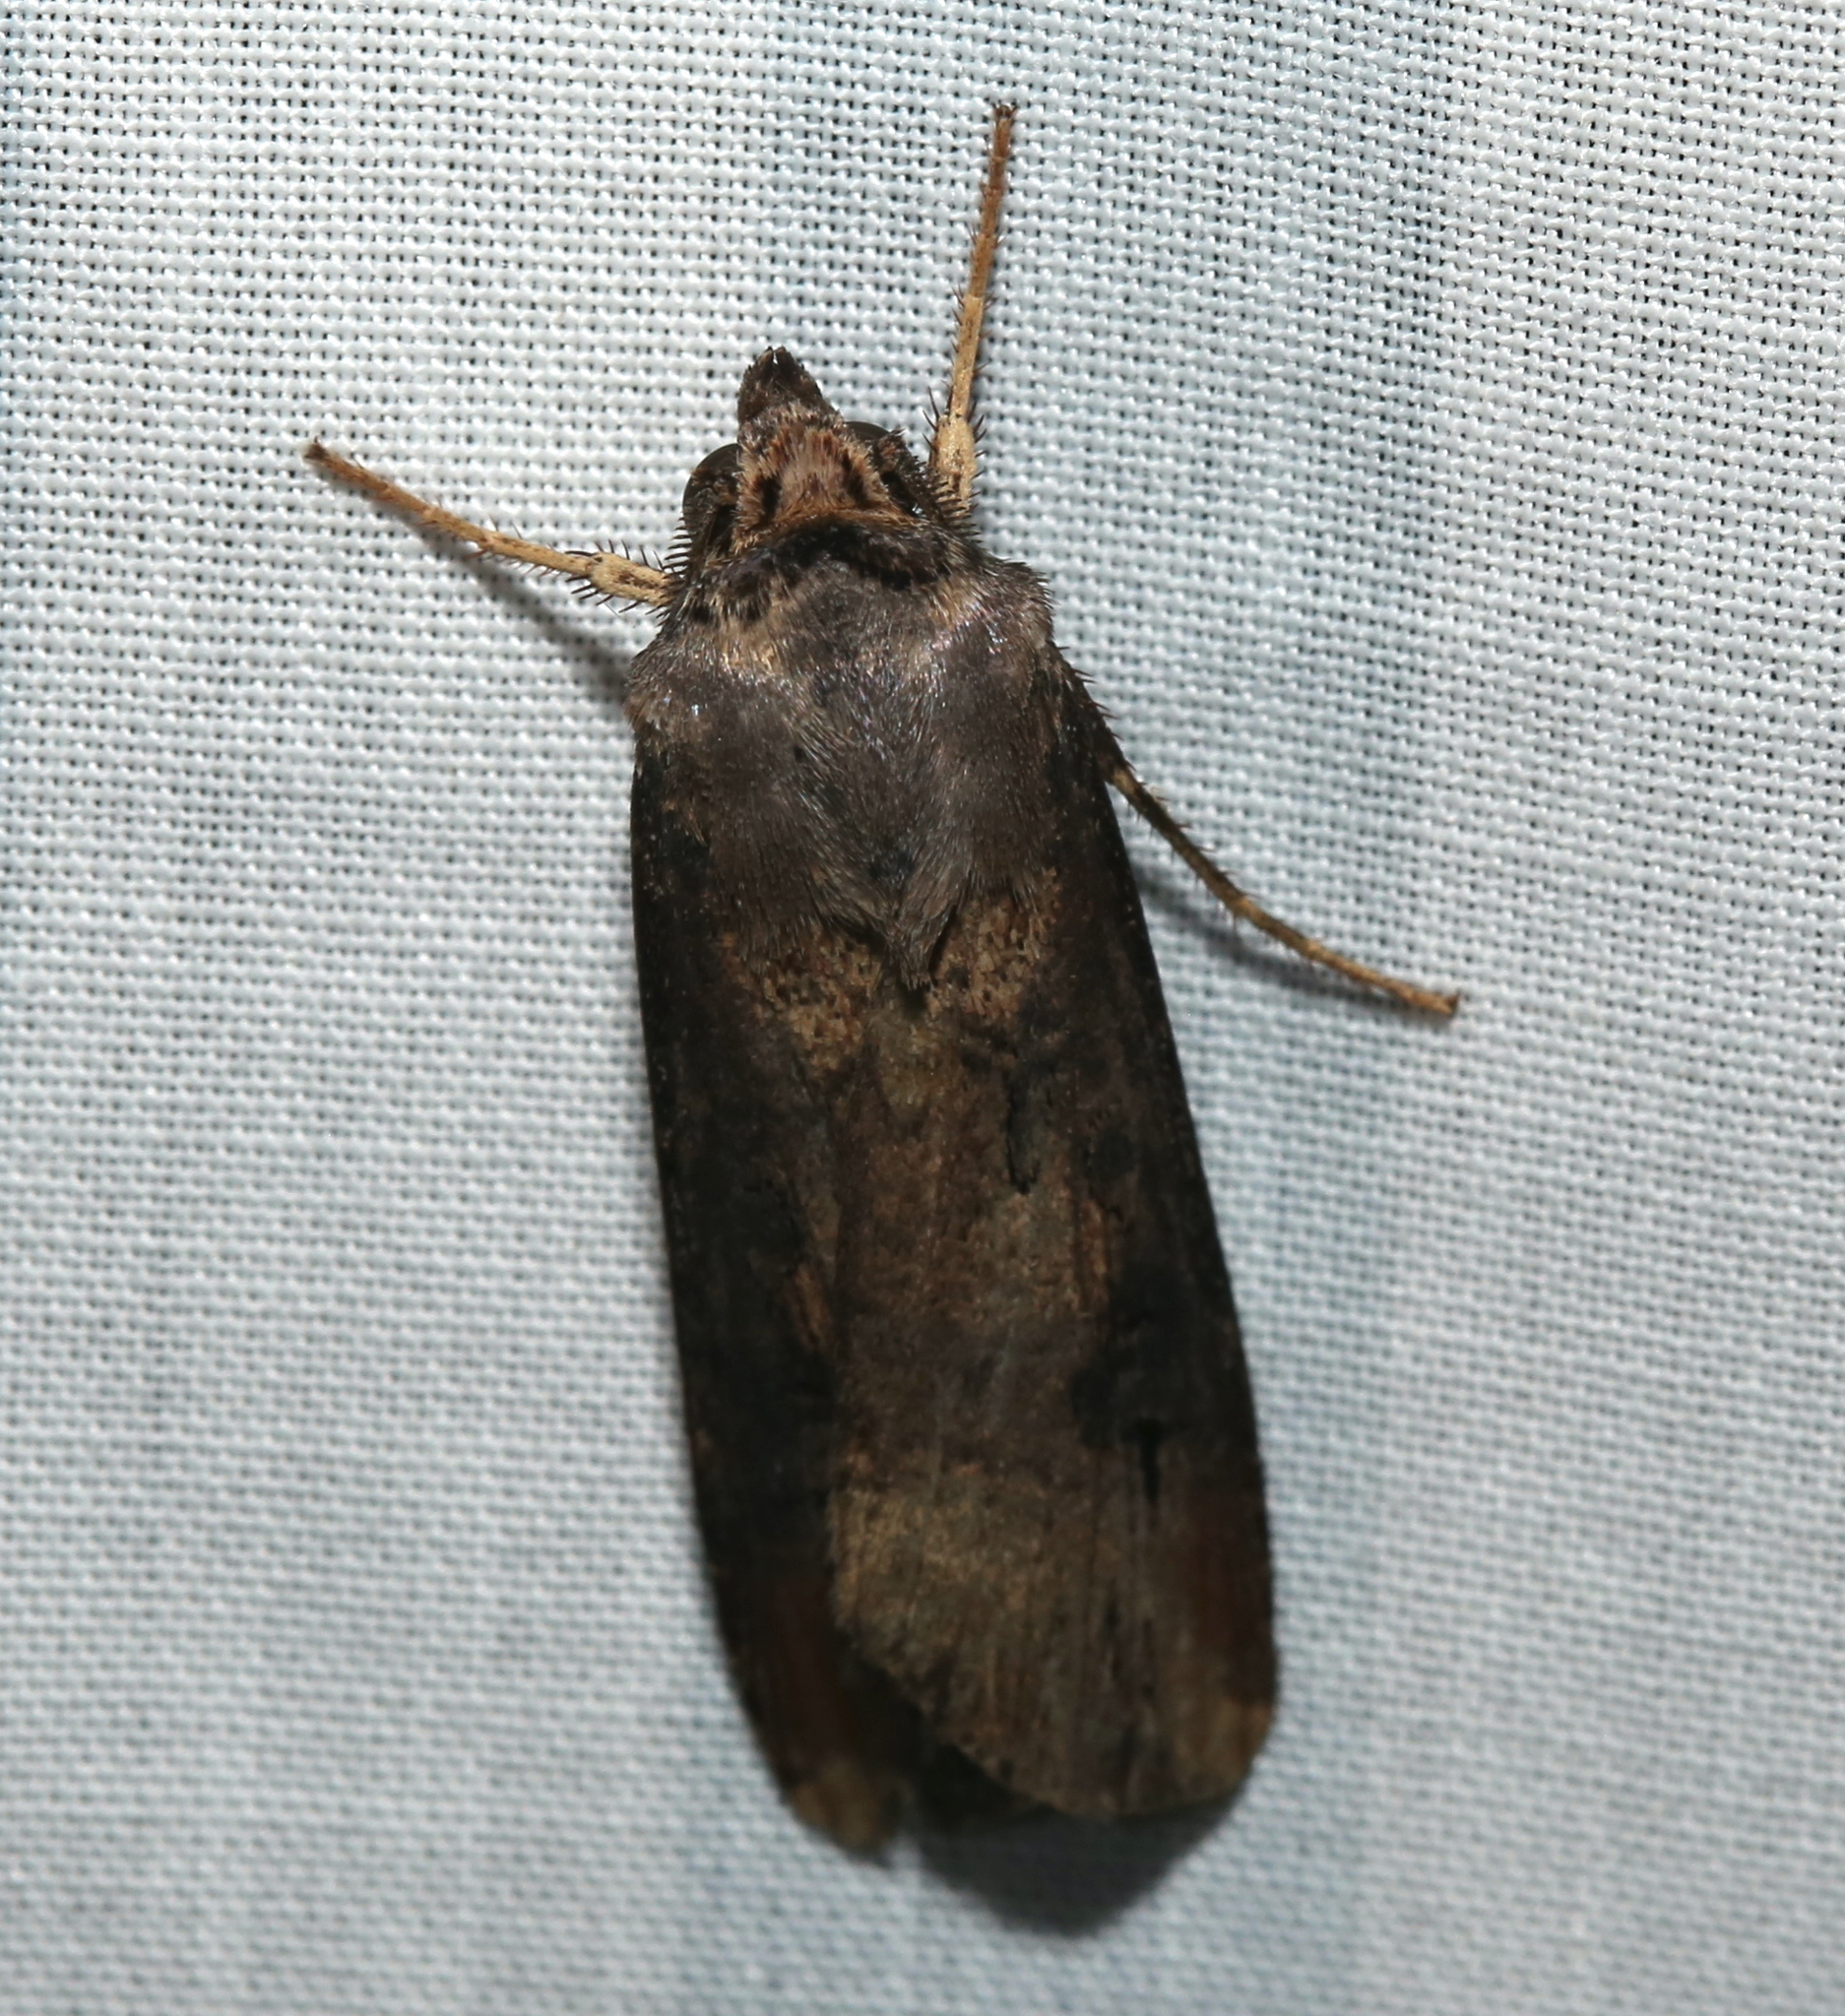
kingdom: Animalia
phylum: Arthropoda
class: Insecta
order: Lepidoptera
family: Noctuidae
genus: Agrotis
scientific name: Agrotis ipsilon
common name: Dark sword-grass
